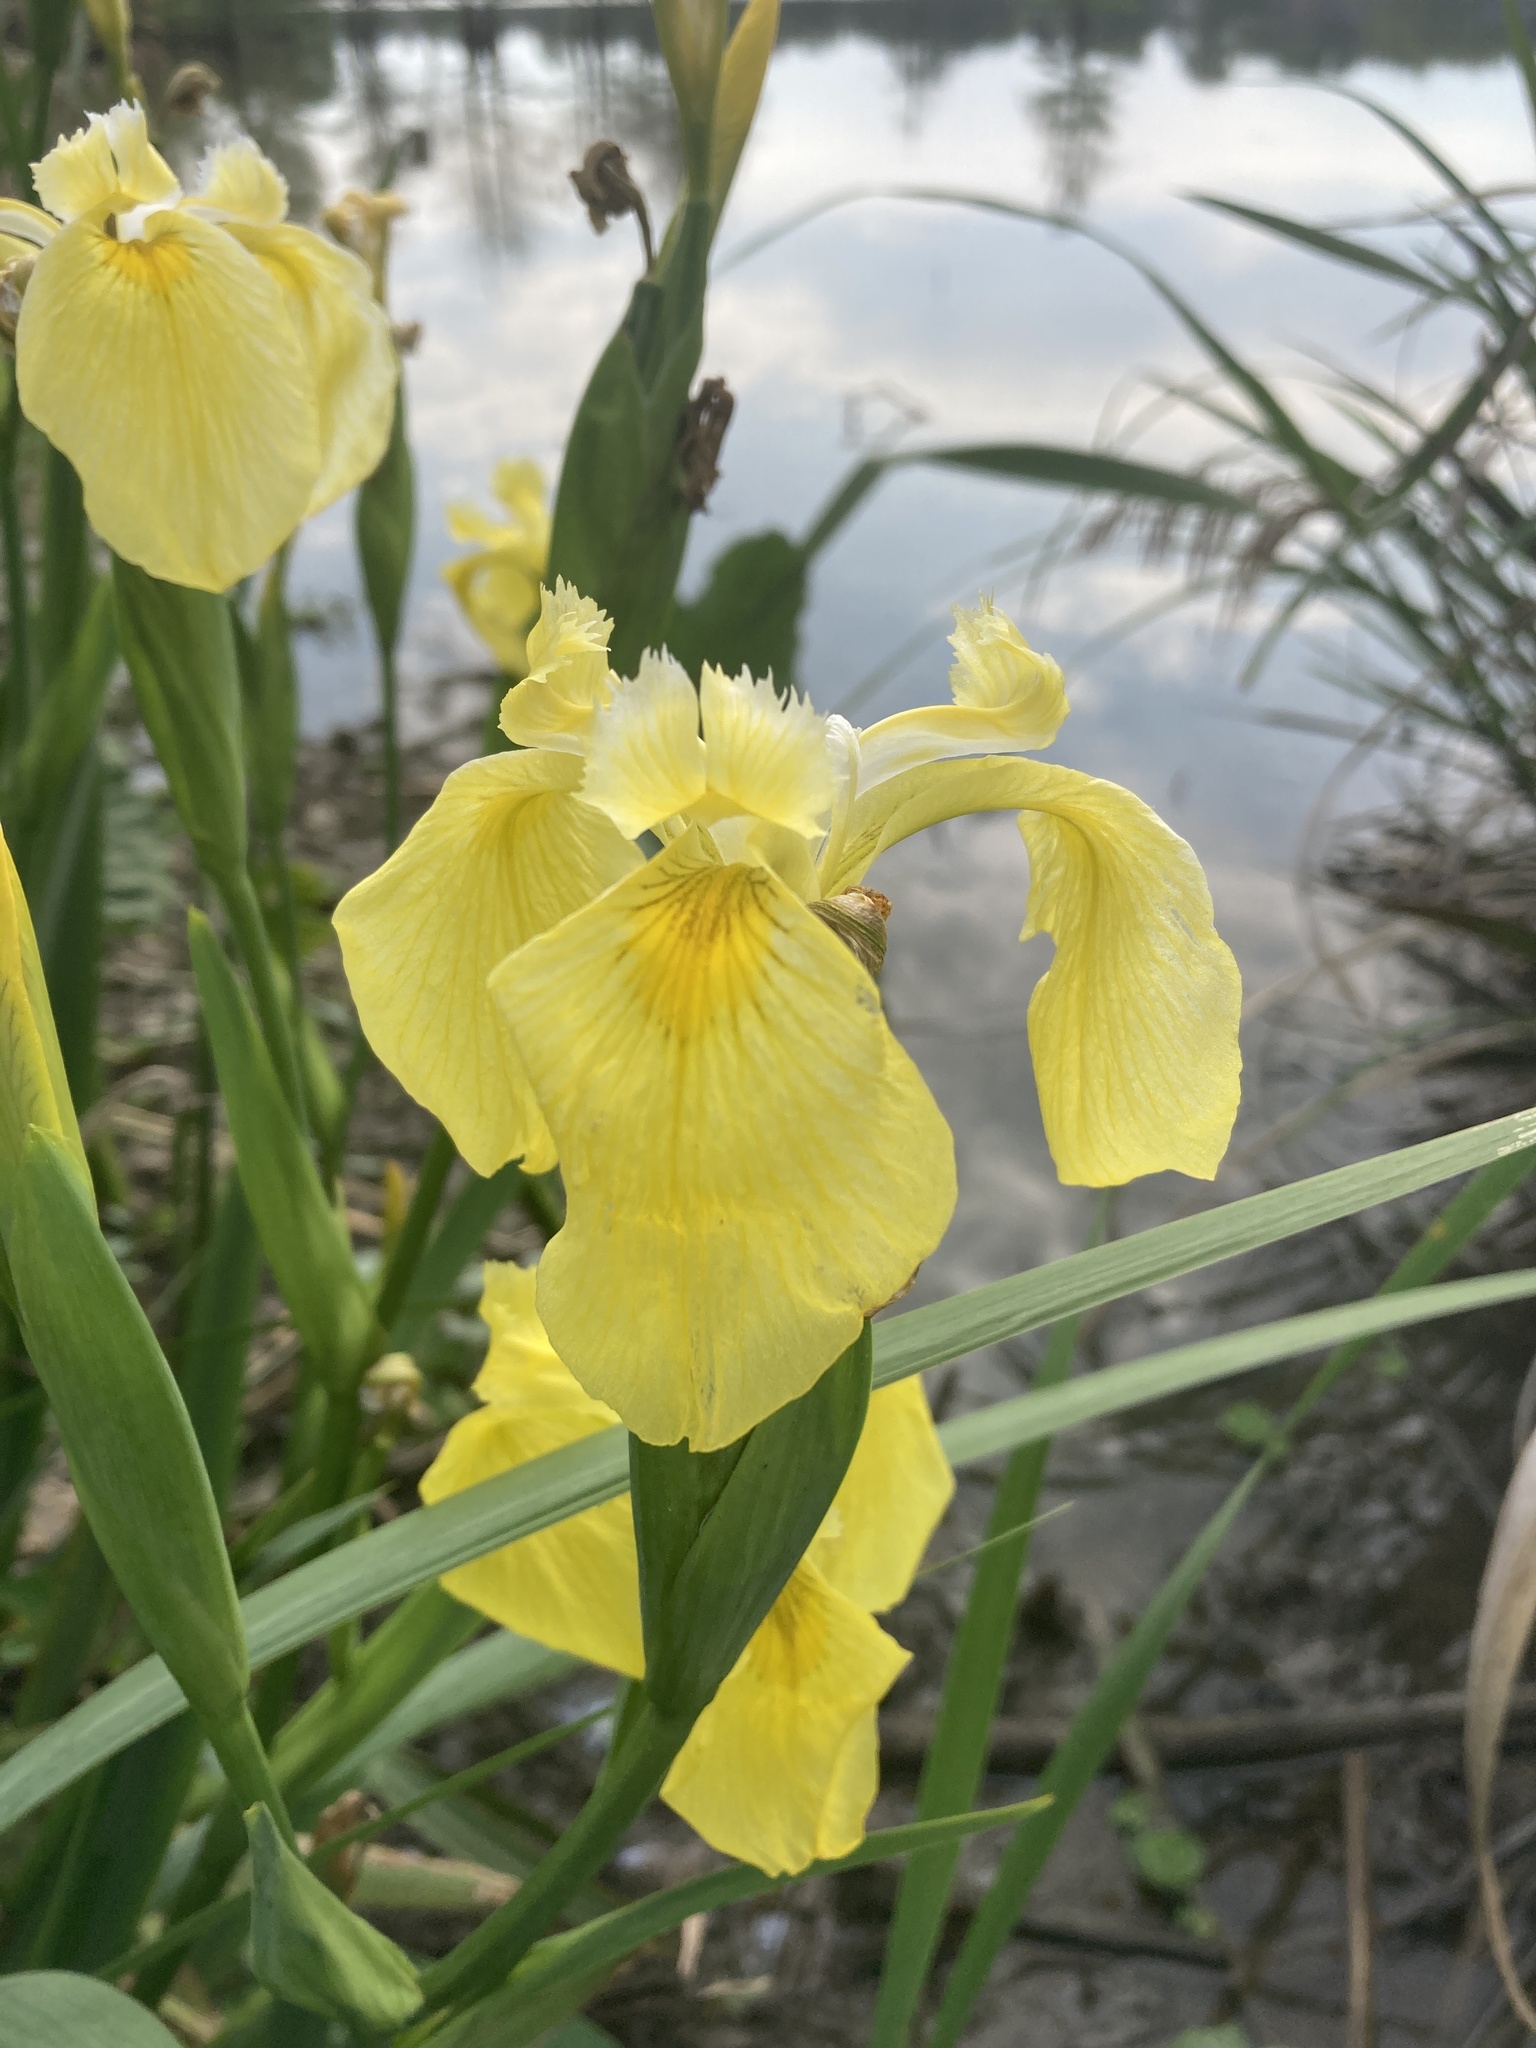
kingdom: Plantae
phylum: Tracheophyta
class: Liliopsida
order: Asparagales
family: Iridaceae
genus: Iris
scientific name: Iris pseudacorus
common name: Yellow flag
